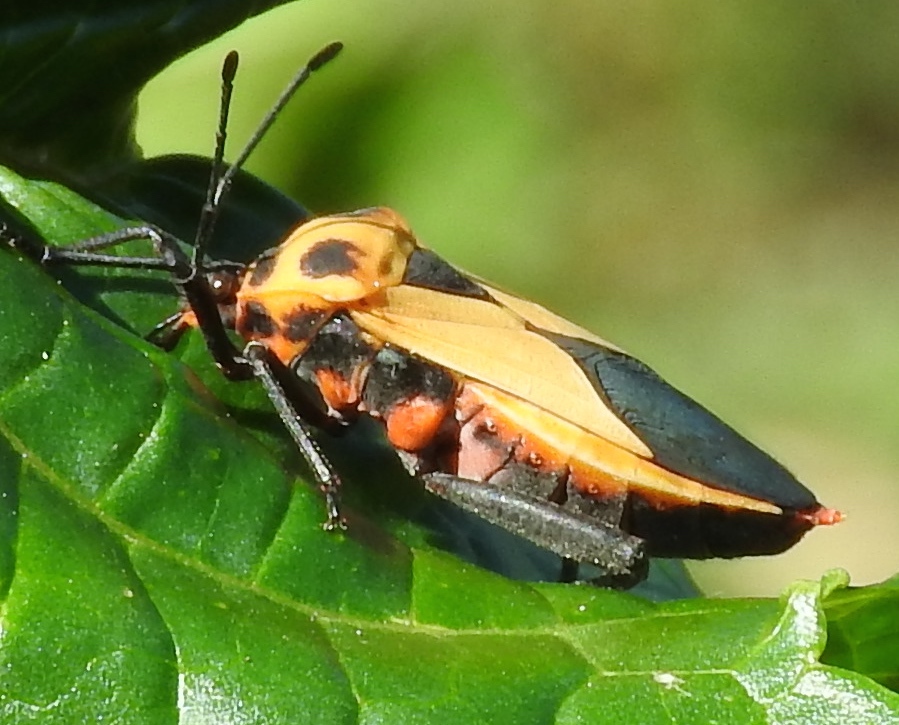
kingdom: Animalia
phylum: Arthropoda
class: Insecta
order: Hemiptera
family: Coreidae
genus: Sagotylus
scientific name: Sagotylus confluens
